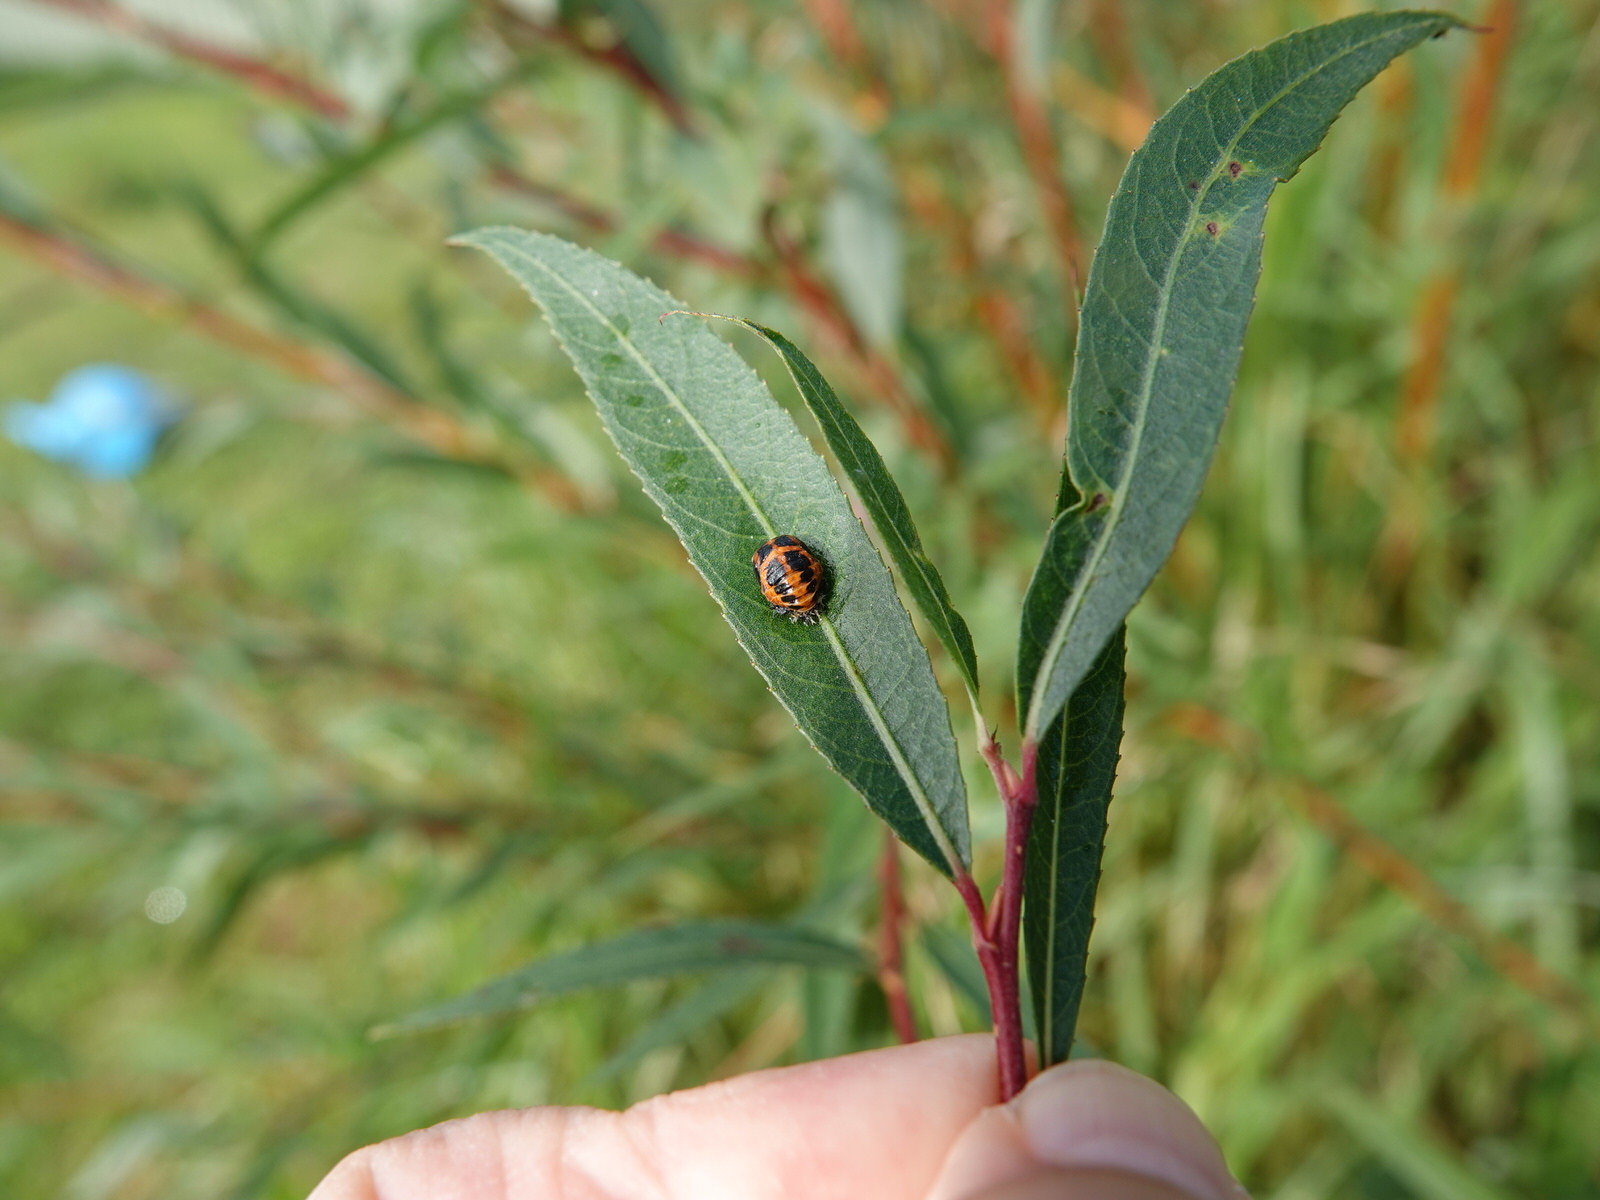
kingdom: Animalia
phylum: Arthropoda
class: Insecta
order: Coleoptera
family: Coccinellidae
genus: Harmonia
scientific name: Harmonia axyridis
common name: Harlequin ladybird
